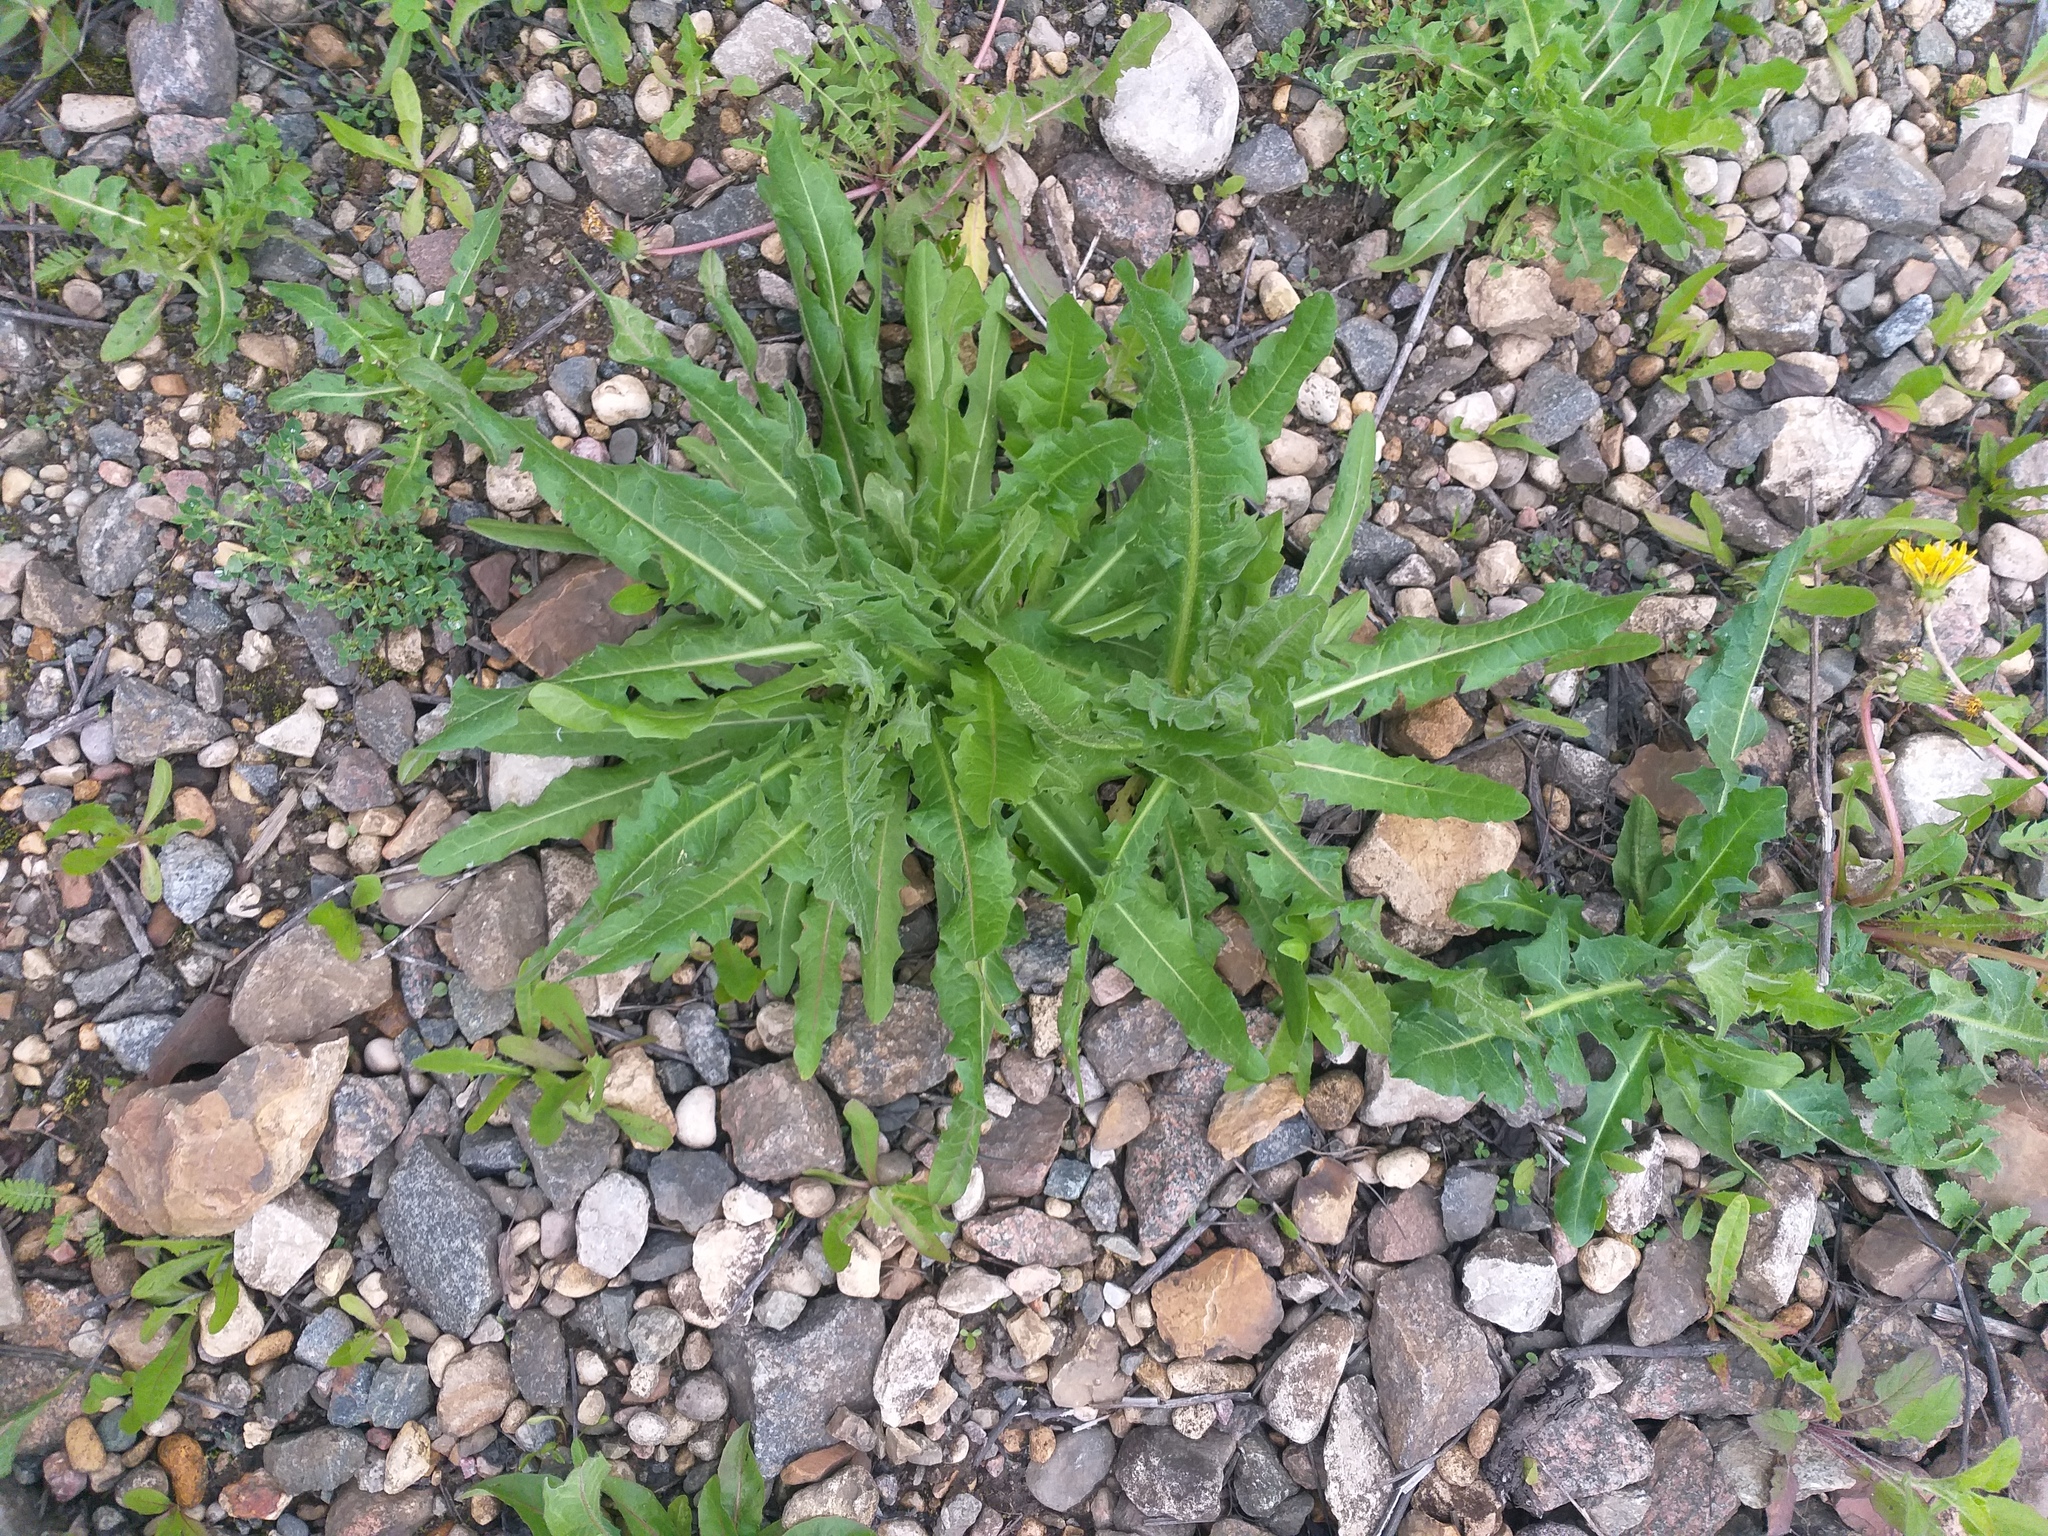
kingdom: Plantae
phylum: Tracheophyta
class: Magnoliopsida
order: Asterales
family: Asteraceae
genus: Cichorium
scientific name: Cichorium intybus
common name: Chicory
